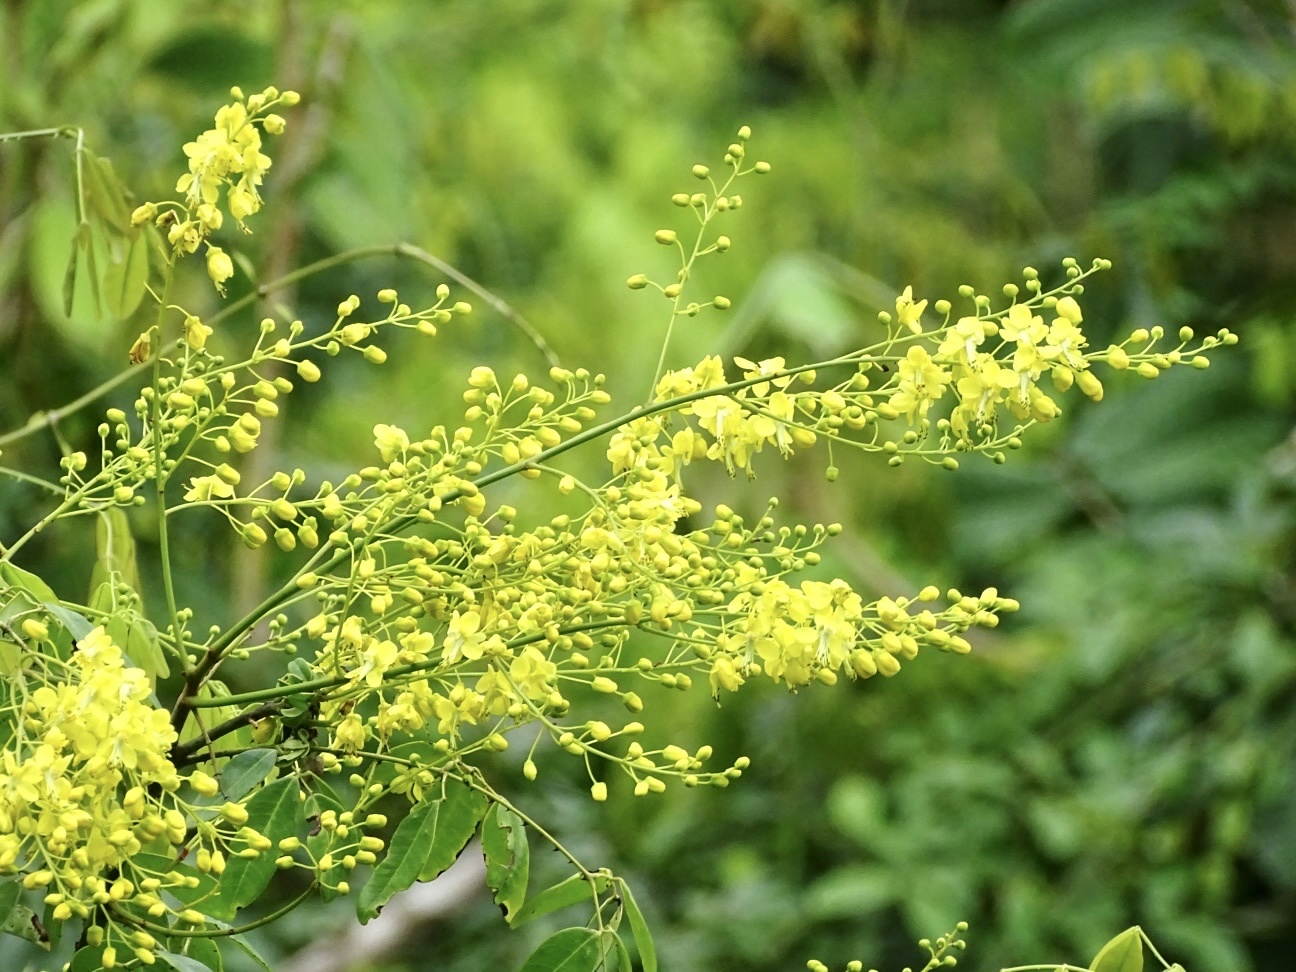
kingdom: Plantae
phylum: Tracheophyta
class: Magnoliopsida
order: Fabales
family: Fabaceae
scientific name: Fabaceae
